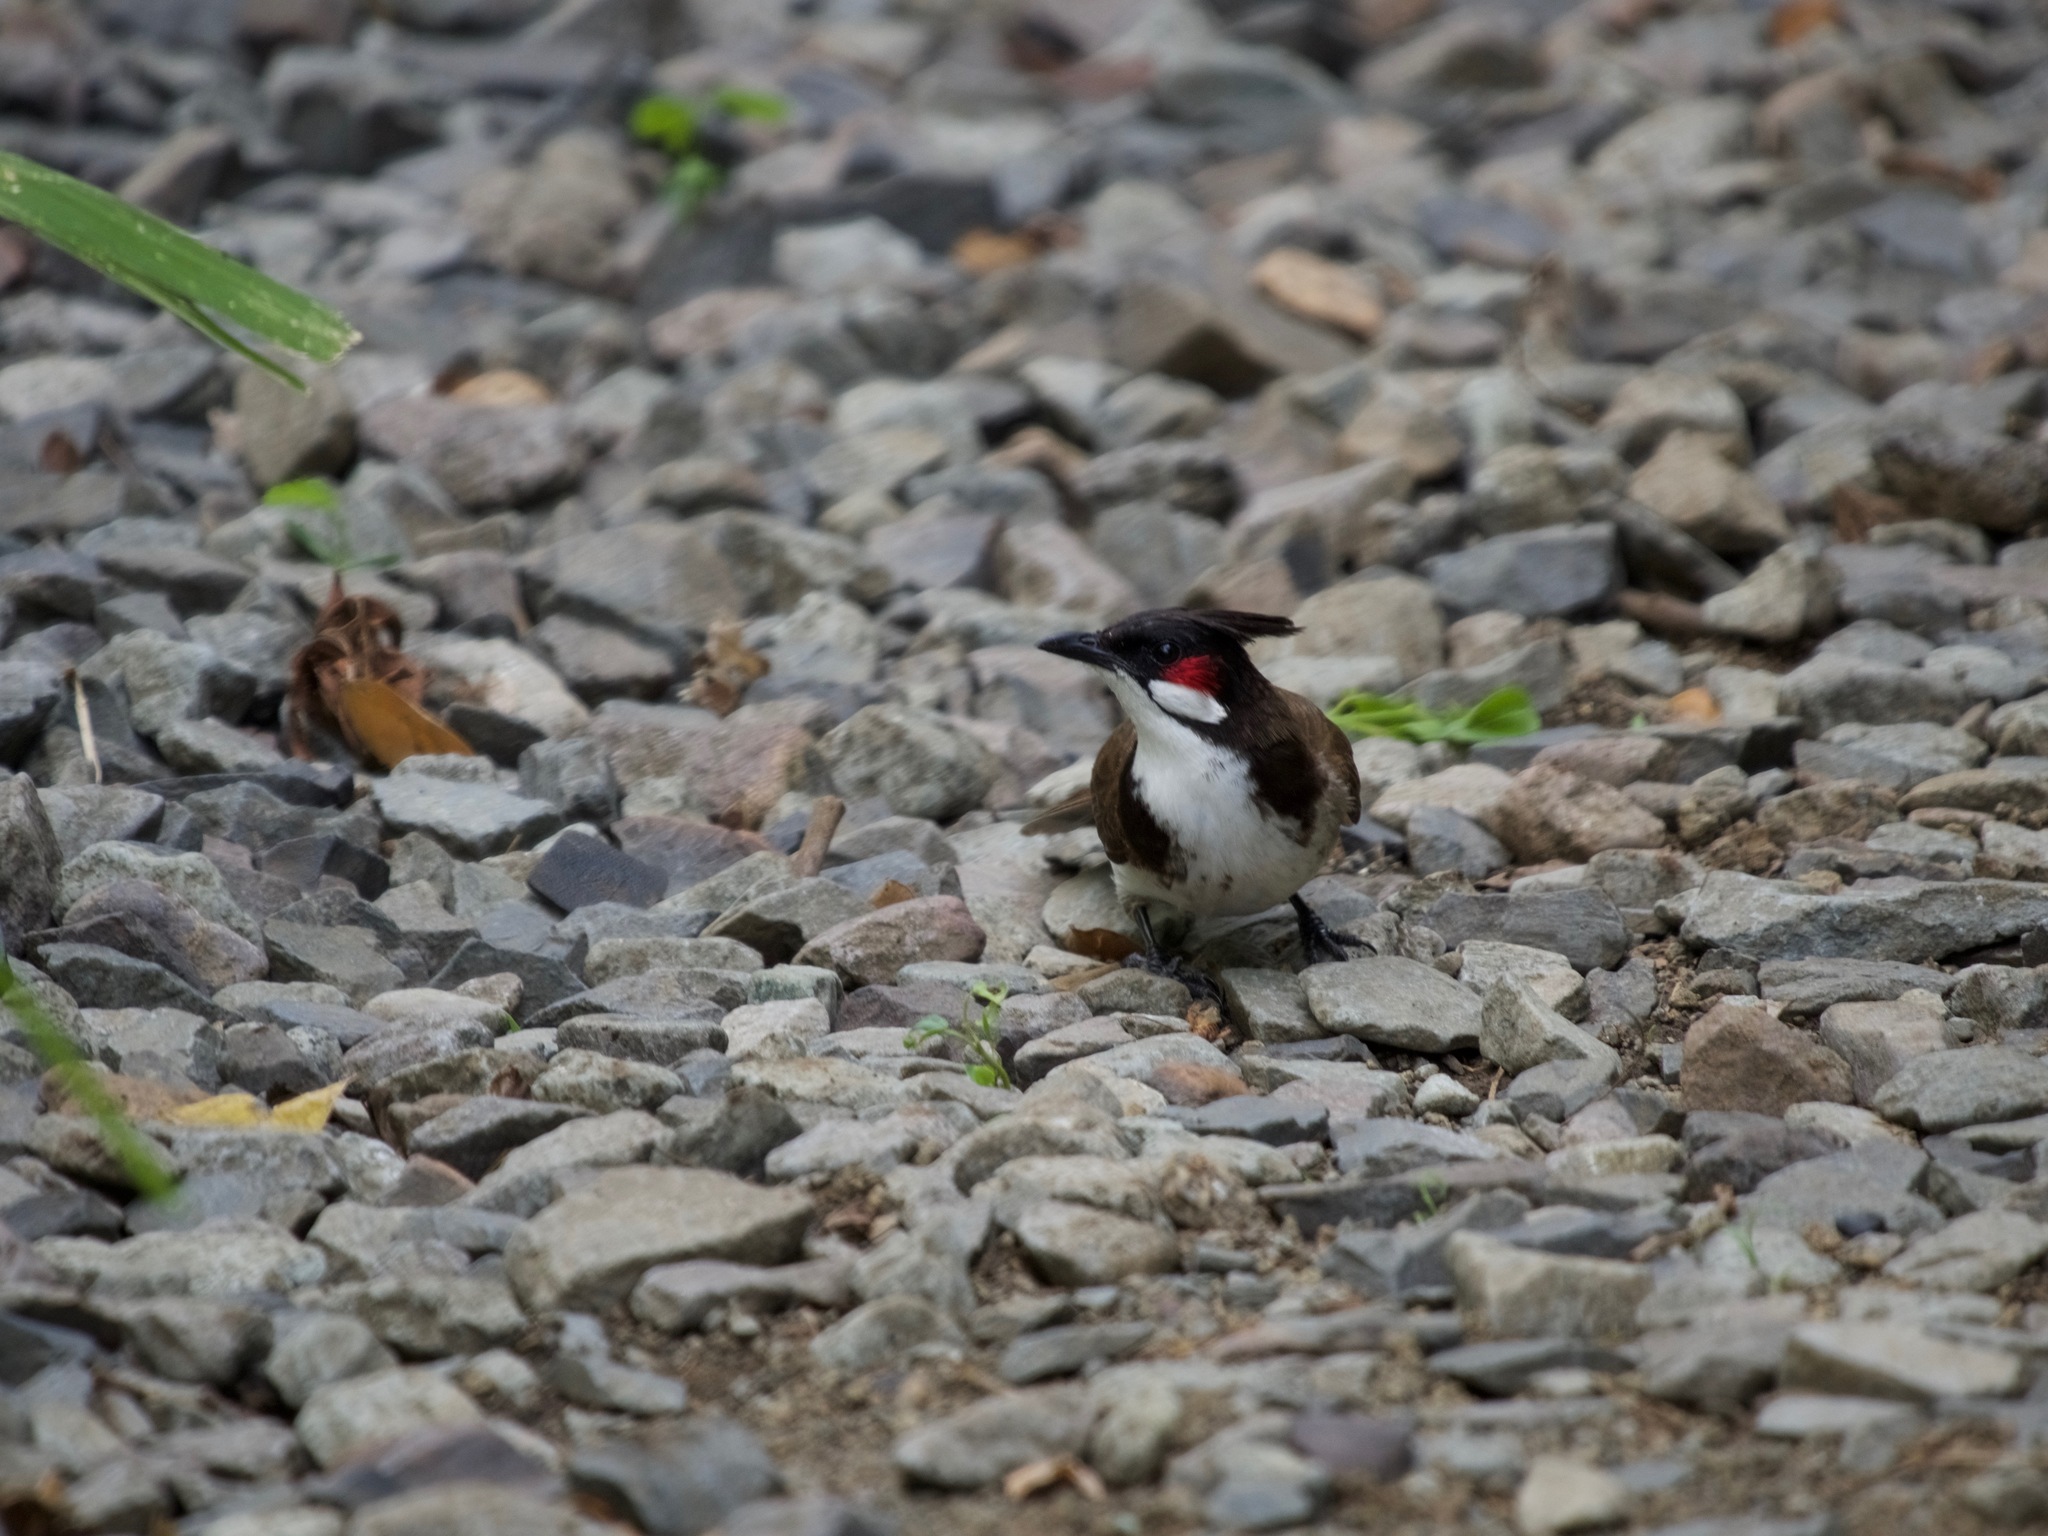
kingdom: Animalia
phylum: Chordata
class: Aves
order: Passeriformes
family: Pycnonotidae
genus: Pycnonotus
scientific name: Pycnonotus jocosus
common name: Red-whiskered bulbul
